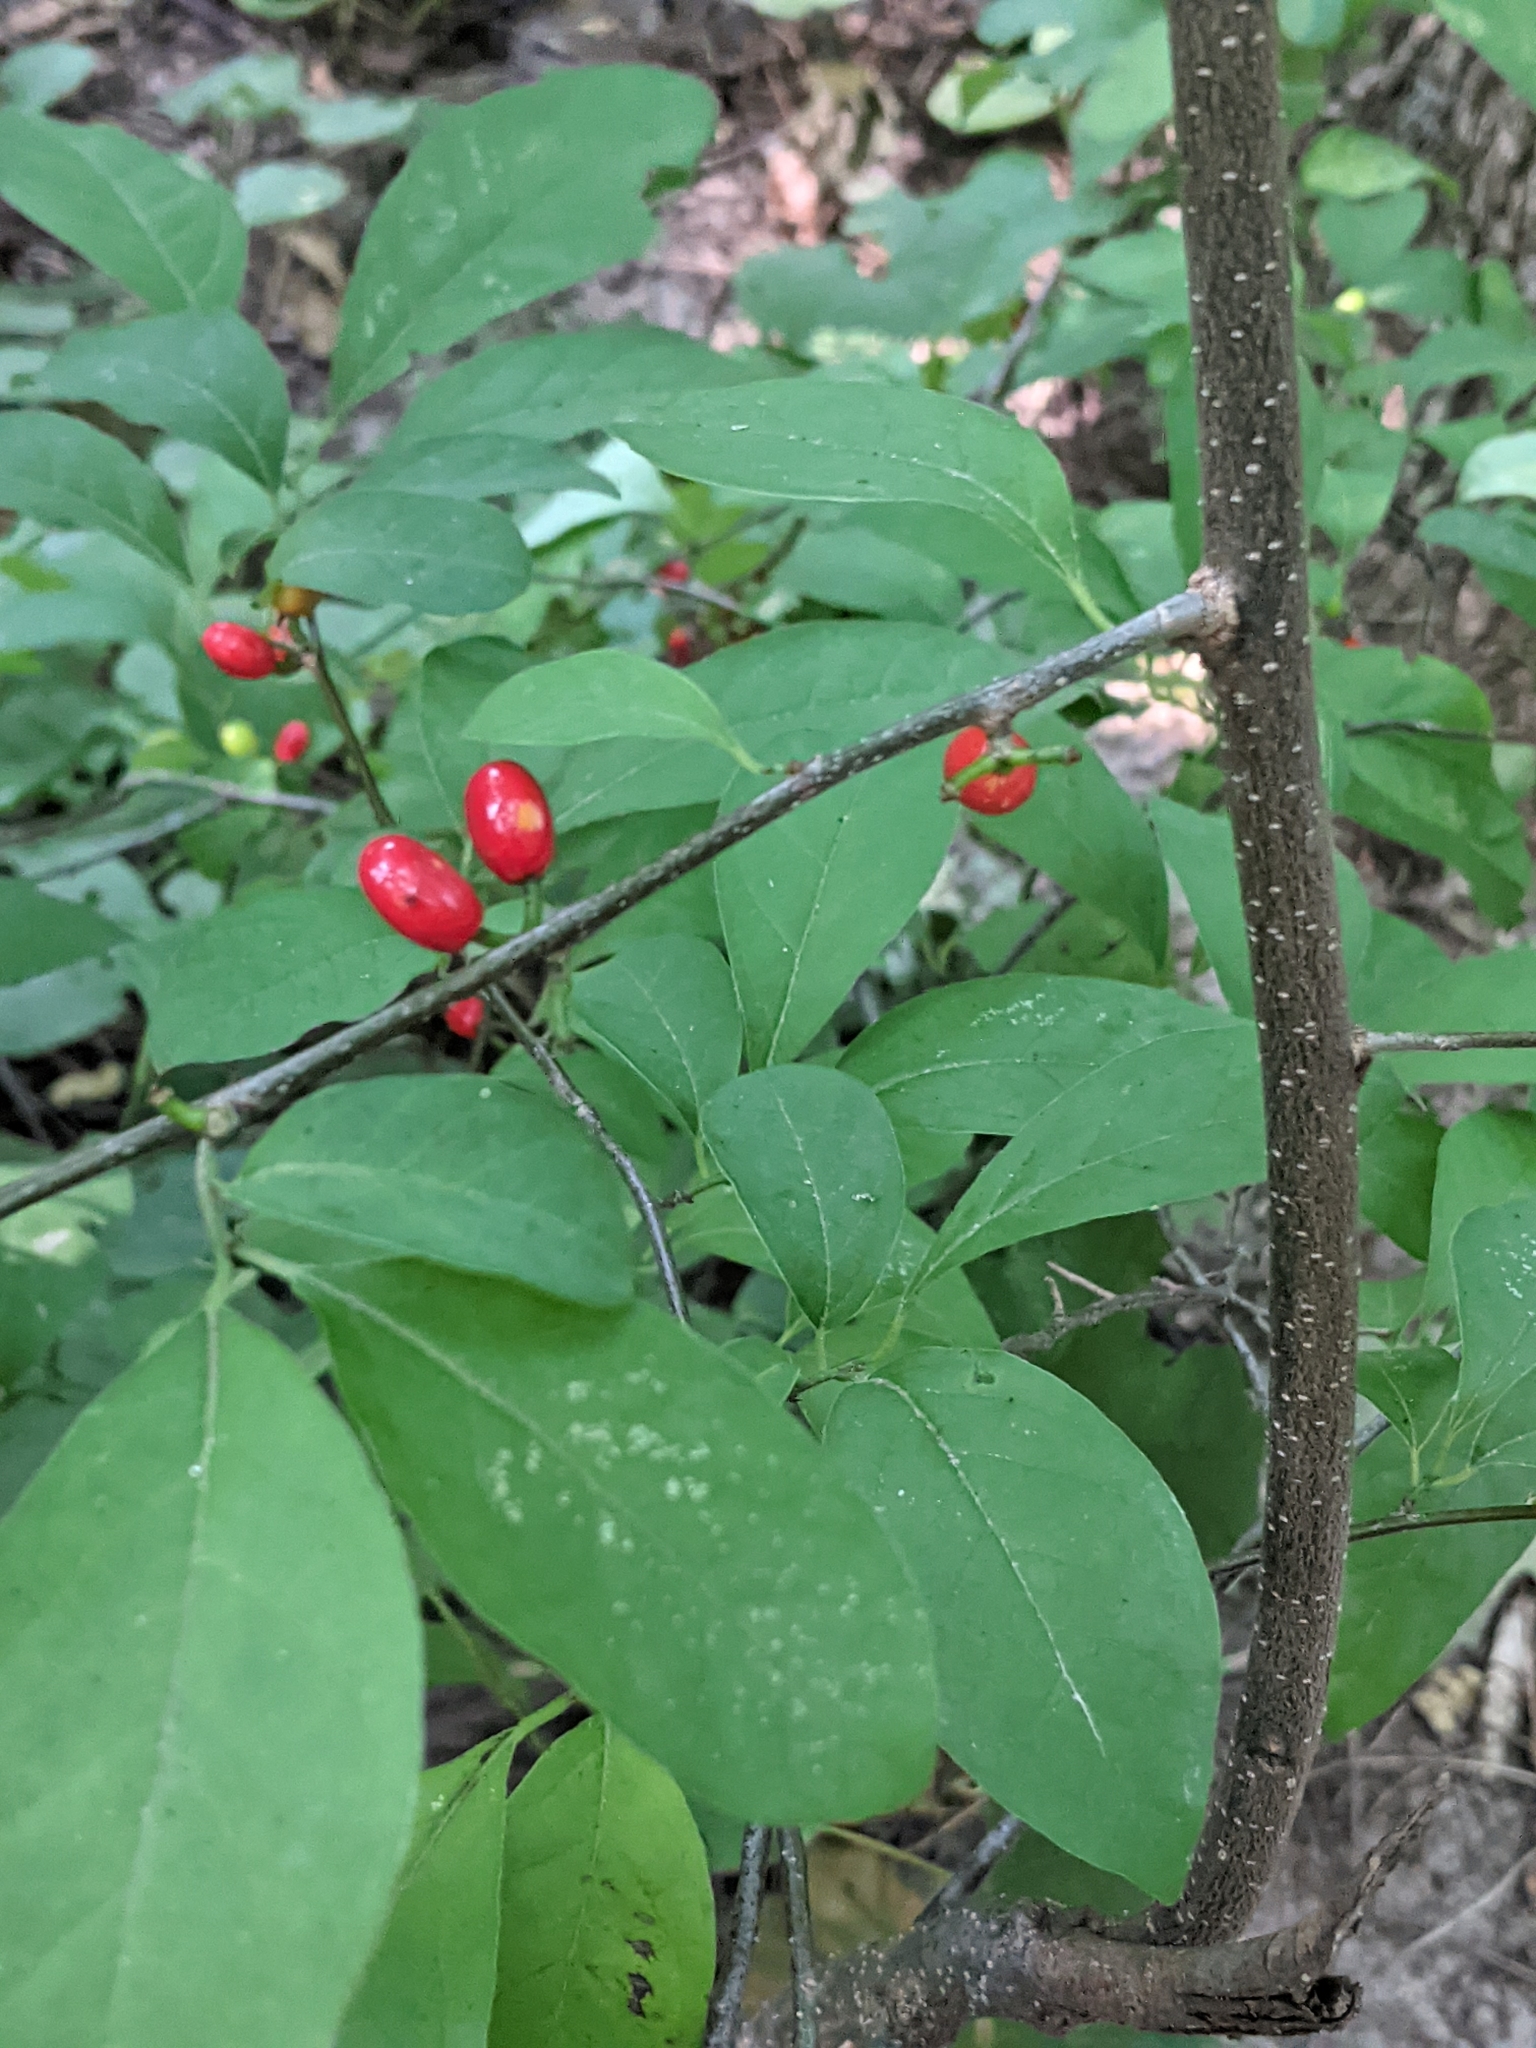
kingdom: Plantae
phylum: Tracheophyta
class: Magnoliopsida
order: Laurales
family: Lauraceae
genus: Lindera
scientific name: Lindera benzoin
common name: Spicebush
